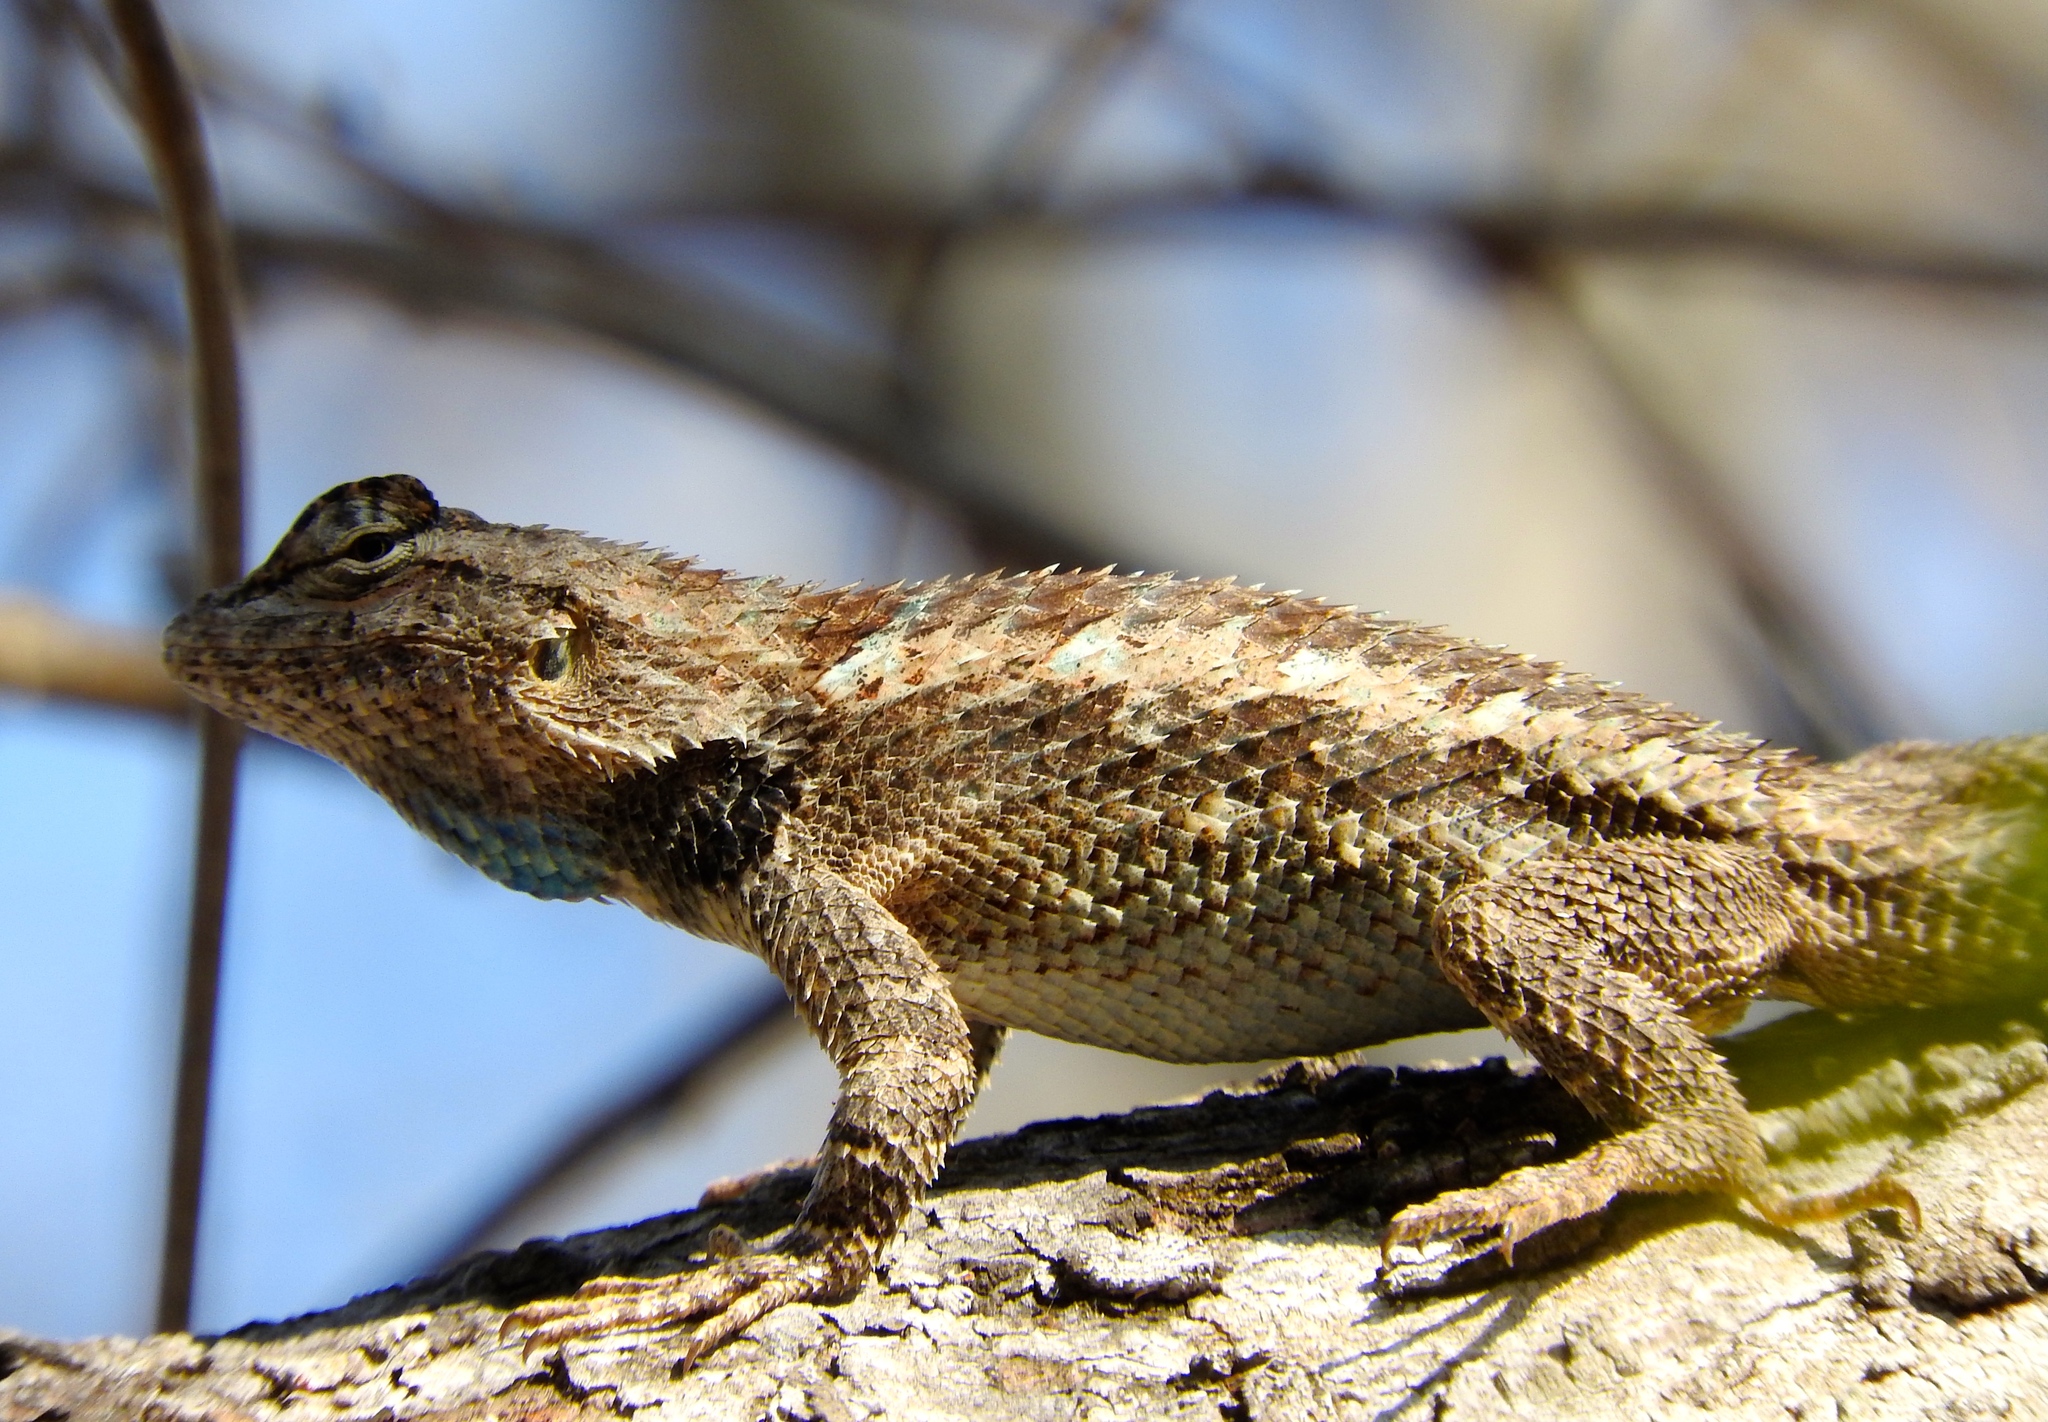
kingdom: Animalia
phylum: Chordata
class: Squamata
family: Phrynosomatidae
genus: Sceloporus
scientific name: Sceloporus clarkii
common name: Clark's spiny lizard
